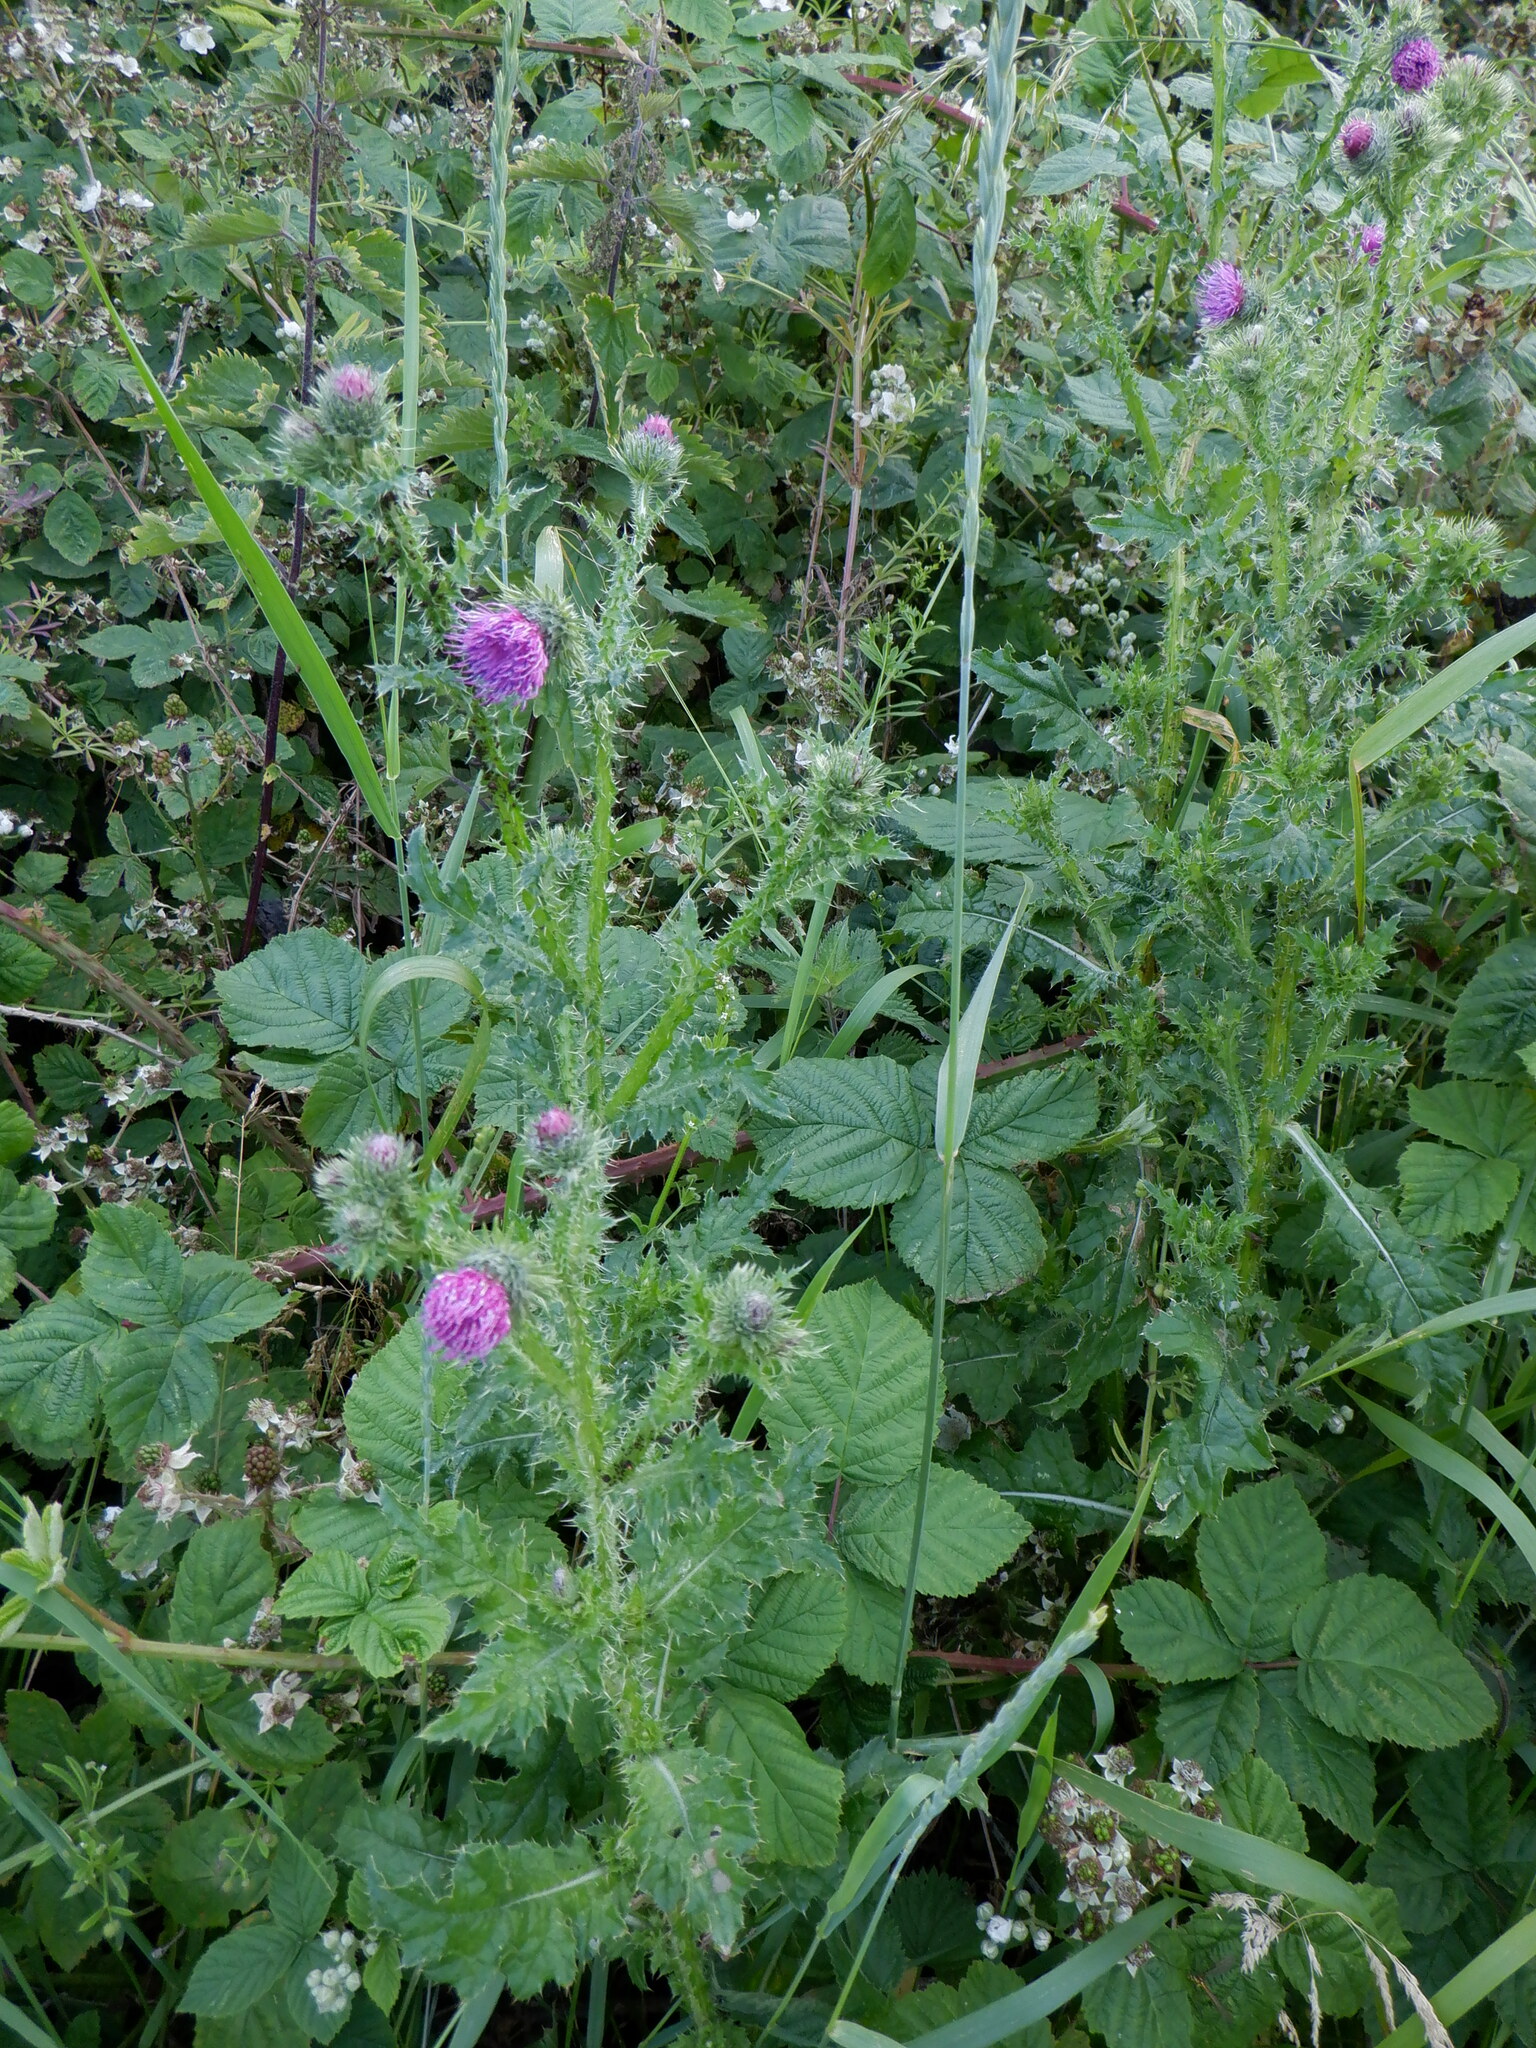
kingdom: Plantae
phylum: Tracheophyta
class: Magnoliopsida
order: Asterales
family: Asteraceae
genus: Carduus
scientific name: Carduus crispus
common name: Welted thistle
